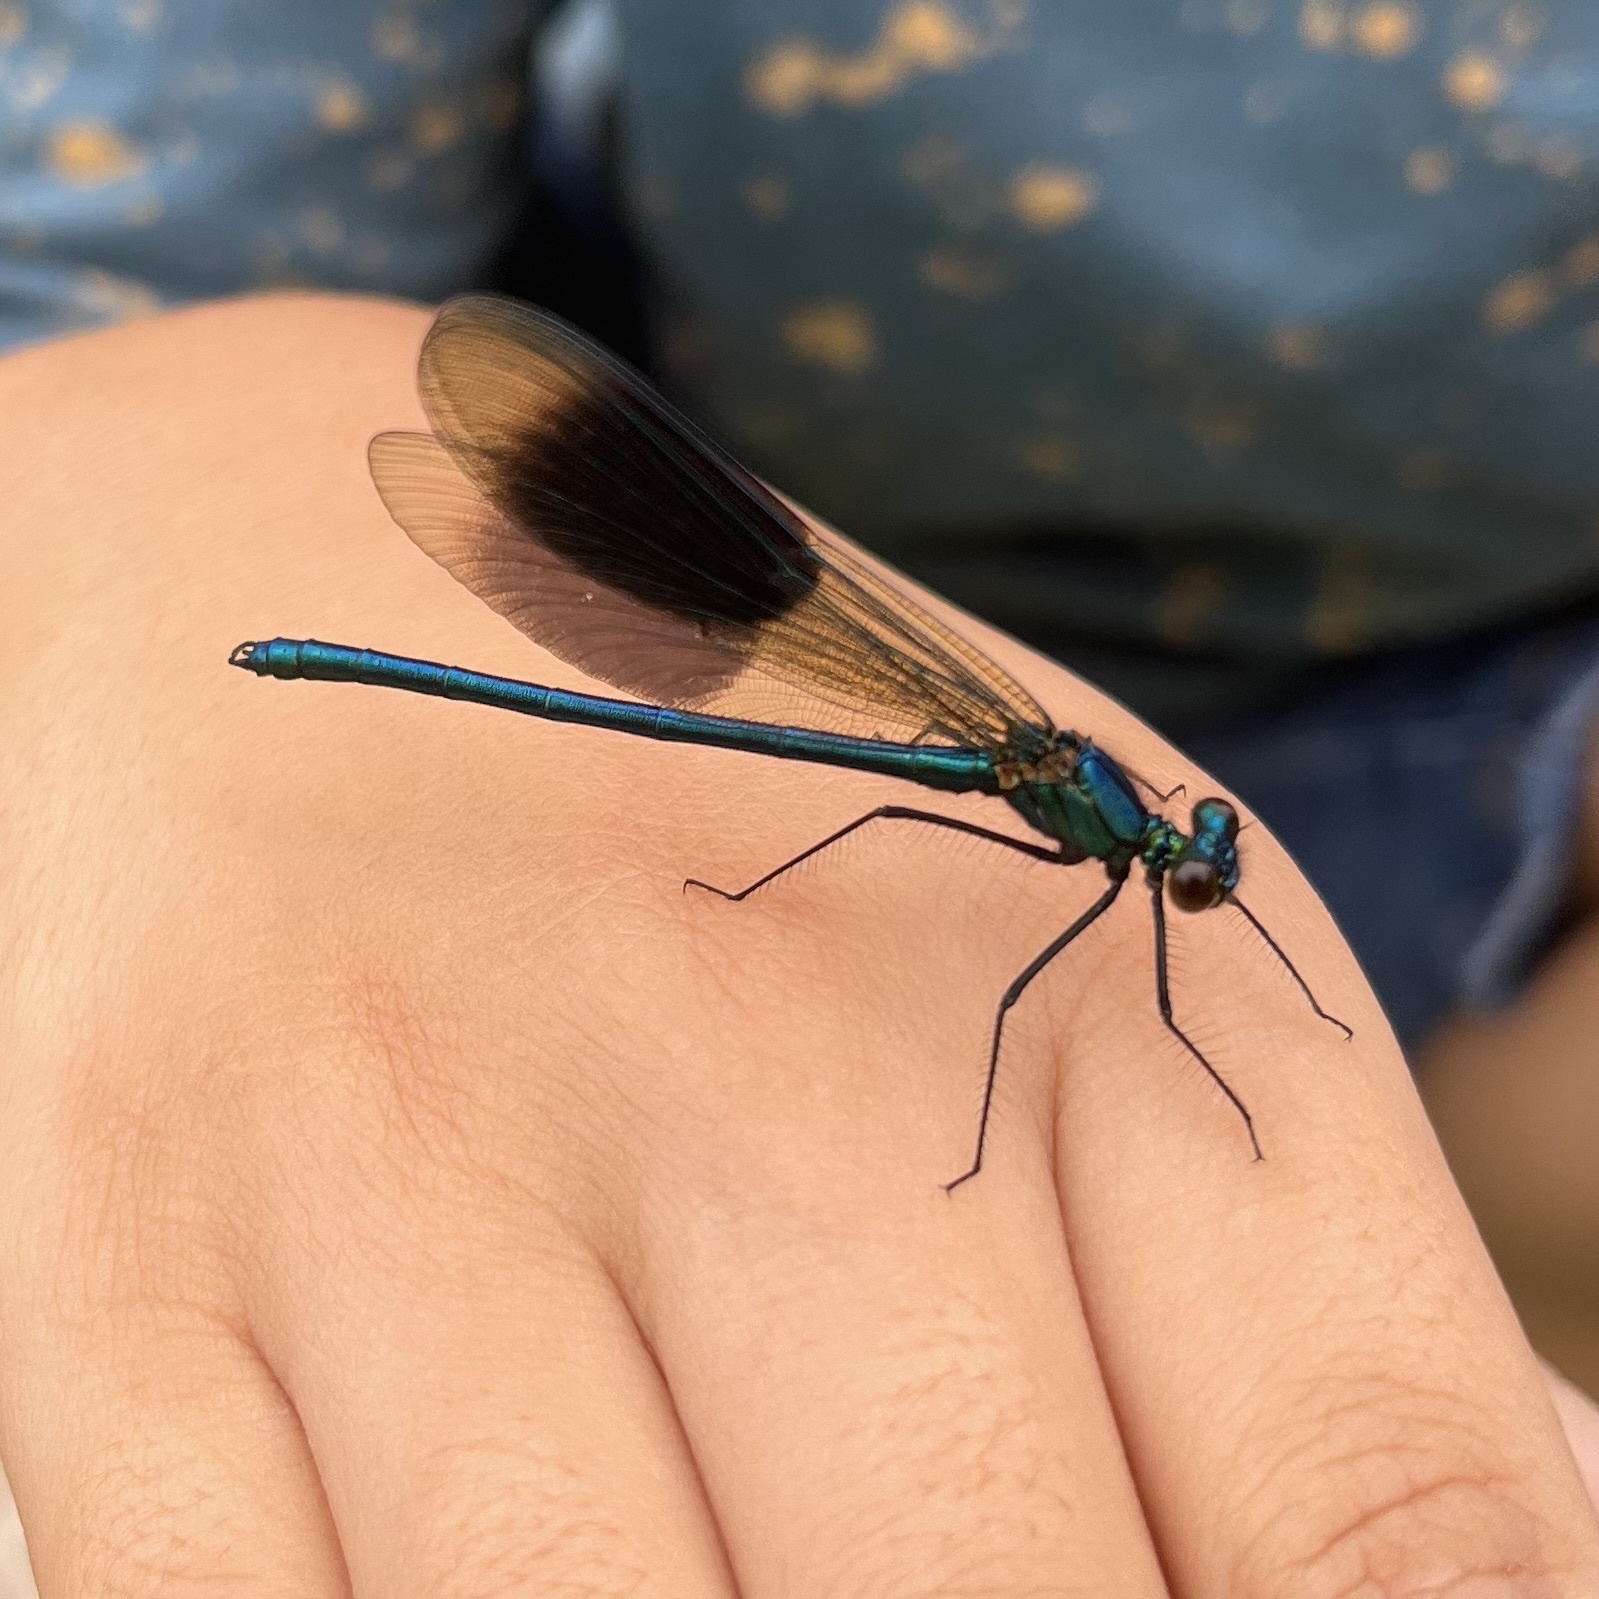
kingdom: Animalia
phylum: Arthropoda
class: Insecta
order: Odonata
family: Calopterygidae
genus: Calopteryx
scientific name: Calopteryx splendens
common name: Banded demoiselle
